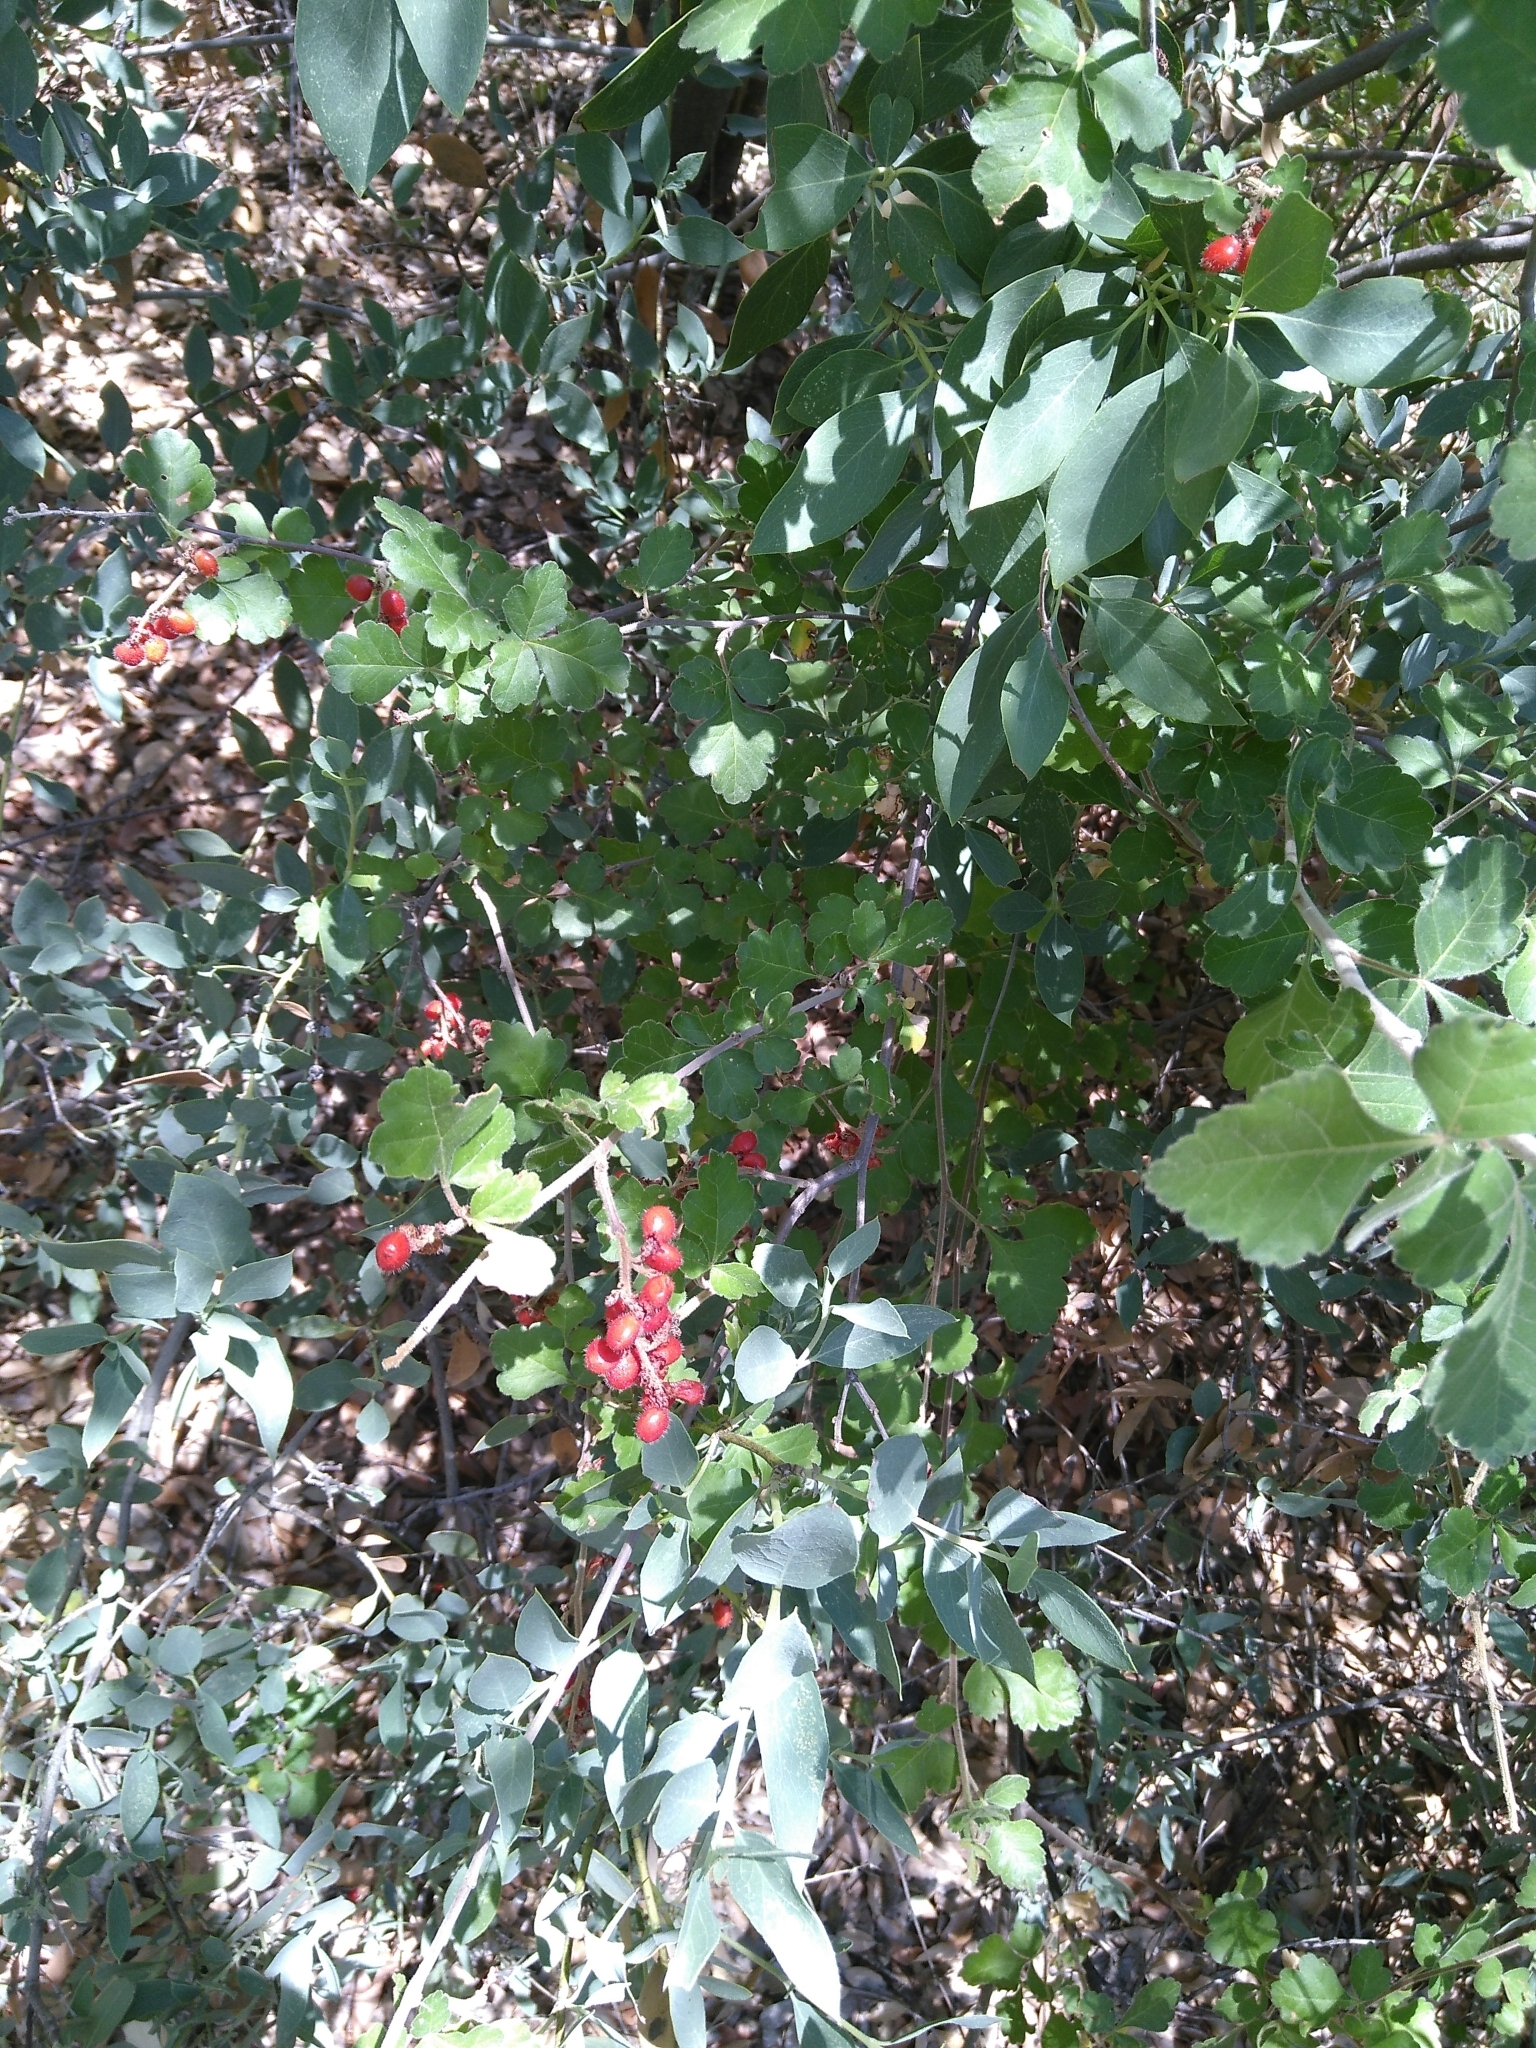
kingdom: Plantae
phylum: Tracheophyta
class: Magnoliopsida
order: Sapindales
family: Anacardiaceae
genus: Rhus
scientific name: Rhus aromatica
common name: Aromatic sumac
